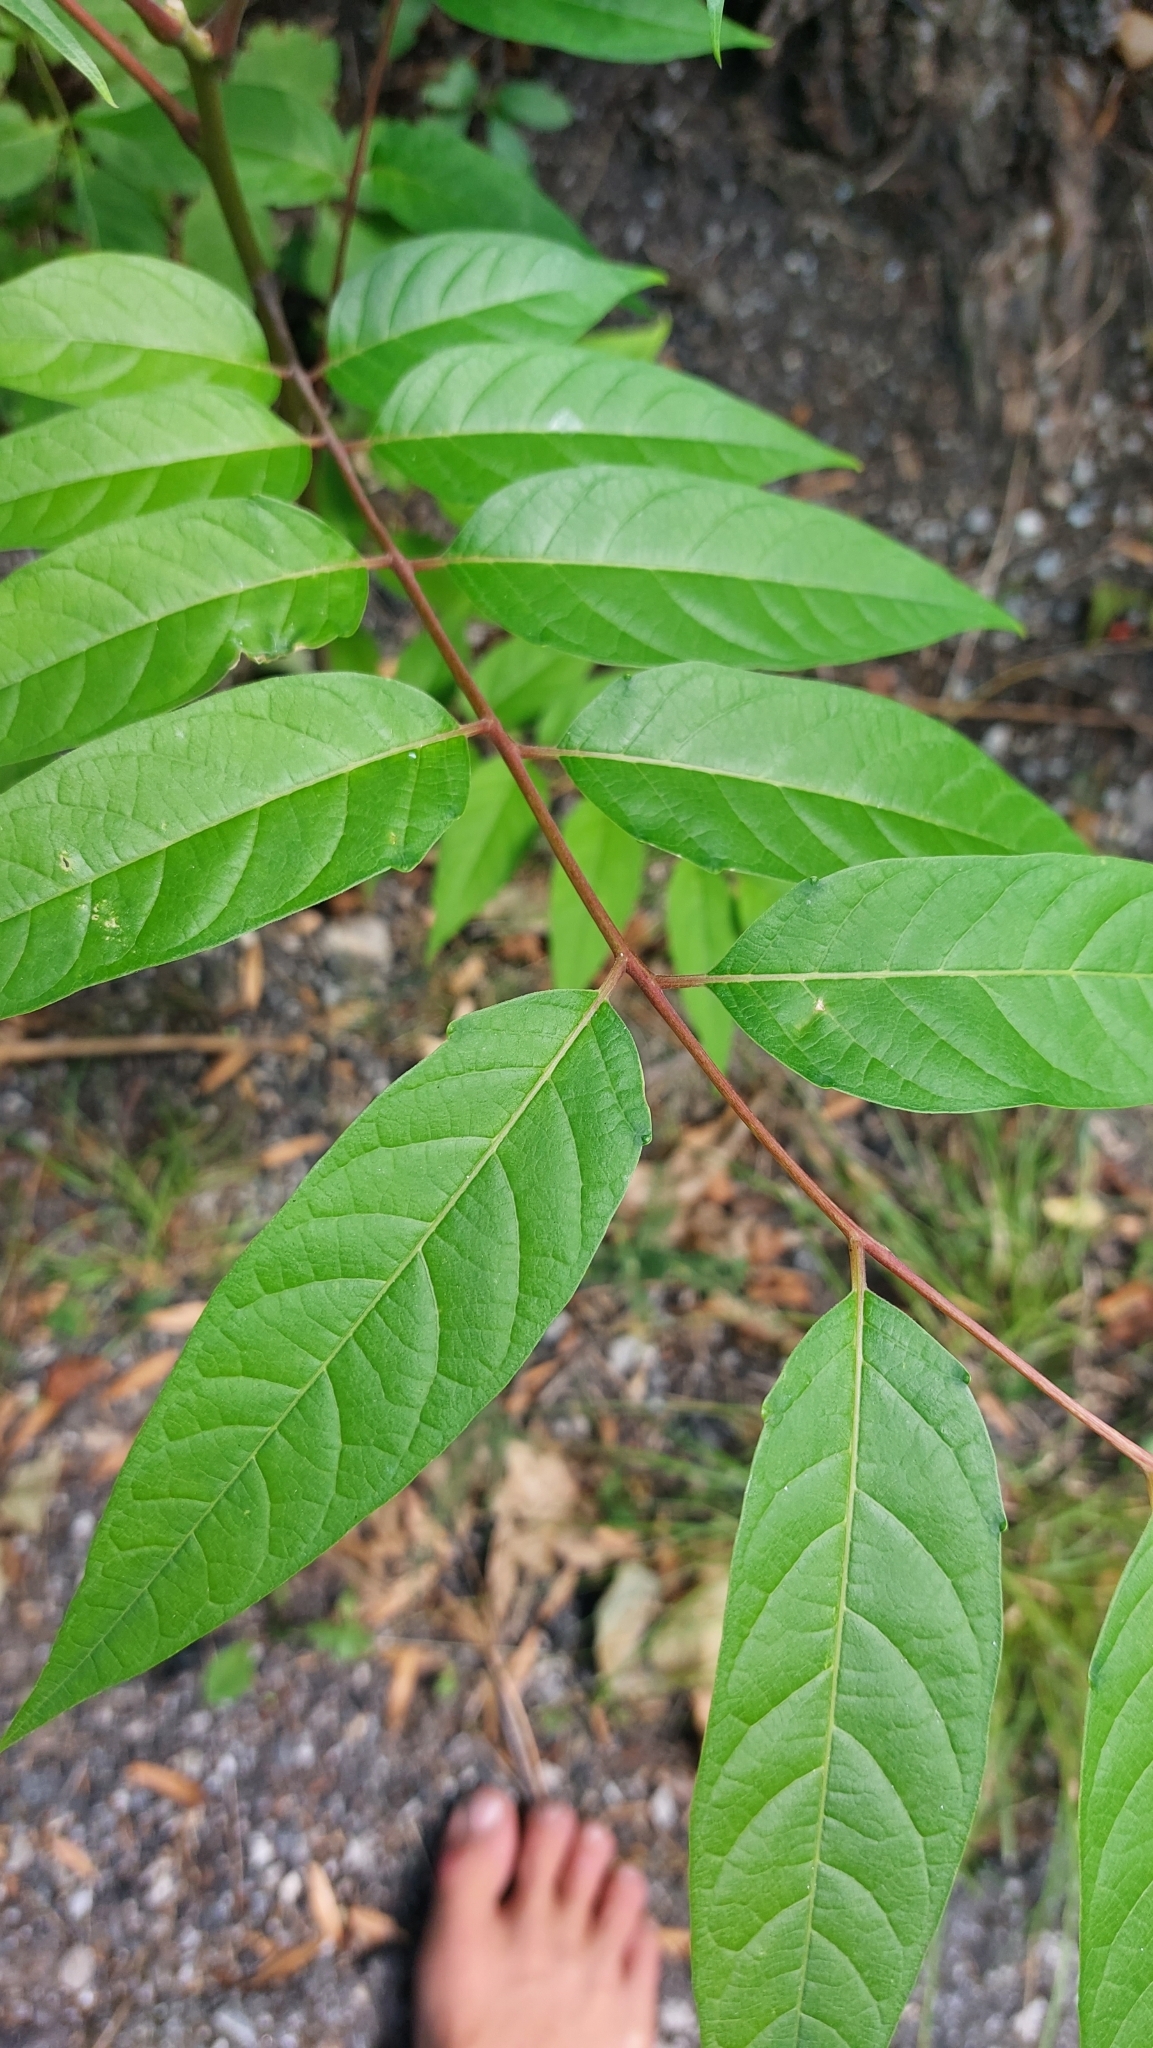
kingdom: Plantae
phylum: Tracheophyta
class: Magnoliopsida
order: Sapindales
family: Simaroubaceae
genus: Ailanthus
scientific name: Ailanthus altissima
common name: Tree-of-heaven
